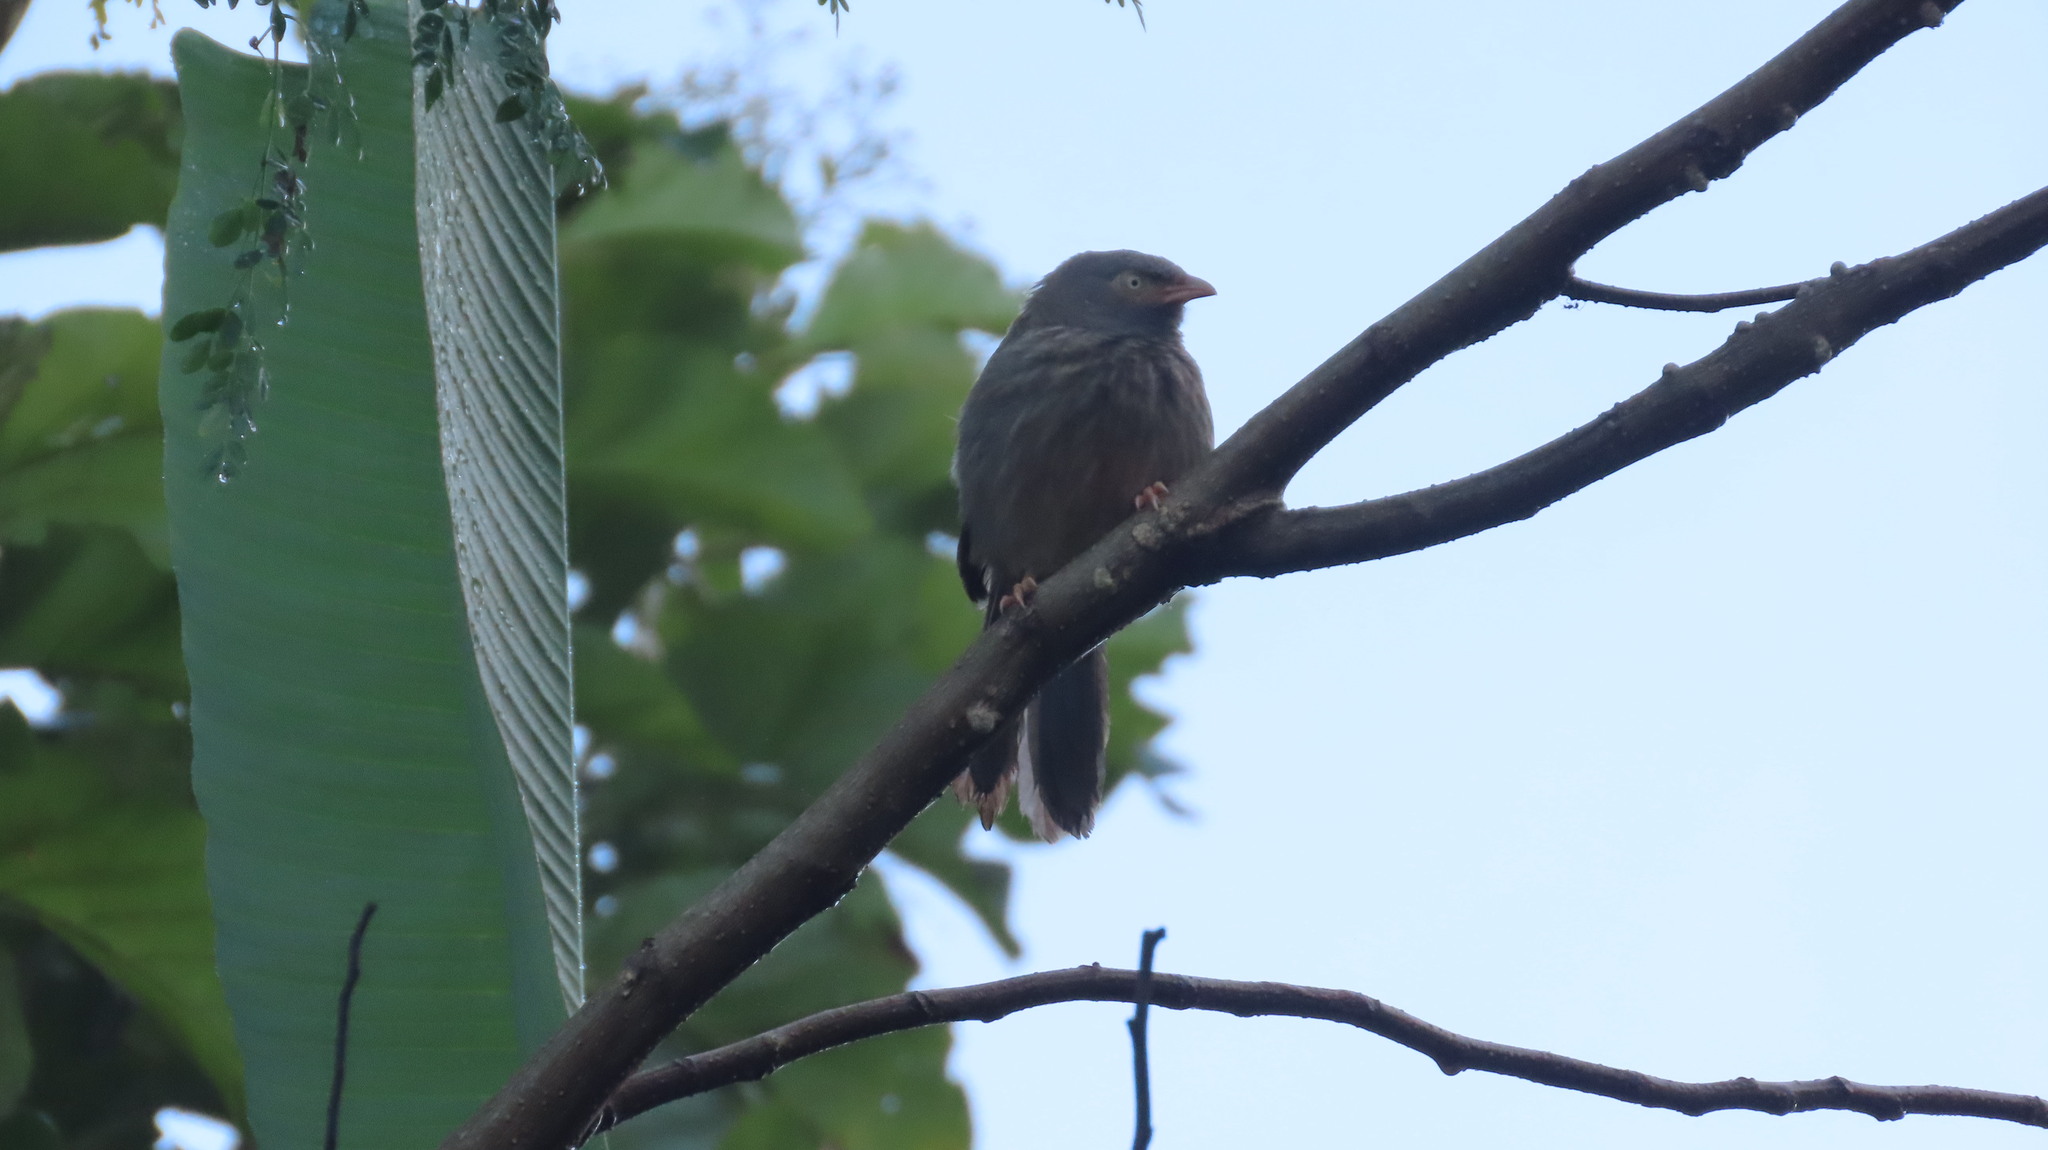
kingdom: Animalia
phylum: Chordata
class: Aves
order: Passeriformes
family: Leiothrichidae
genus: Turdoides
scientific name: Turdoides striata
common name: Jungle babbler
